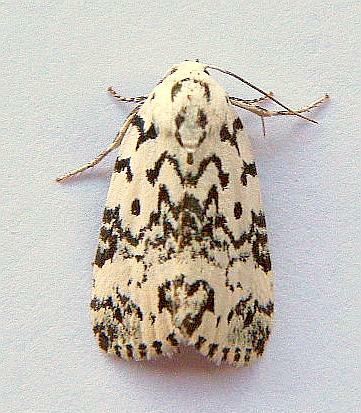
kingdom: Animalia
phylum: Arthropoda
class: Insecta
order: Lepidoptera
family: Noctuidae
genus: Polygrammate
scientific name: Polygrammate hebraeicum
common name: Hebrew moth
